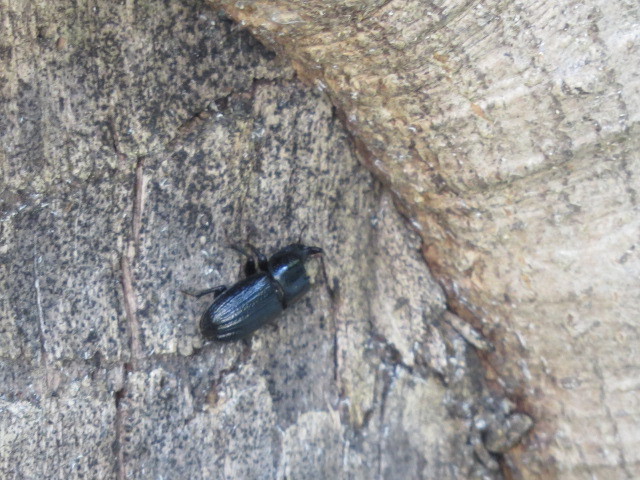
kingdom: Animalia
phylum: Arthropoda
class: Insecta
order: Coleoptera
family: Lucanidae
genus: Sinodendron
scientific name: Sinodendron cylindricum
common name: Rhinoceros beetle
